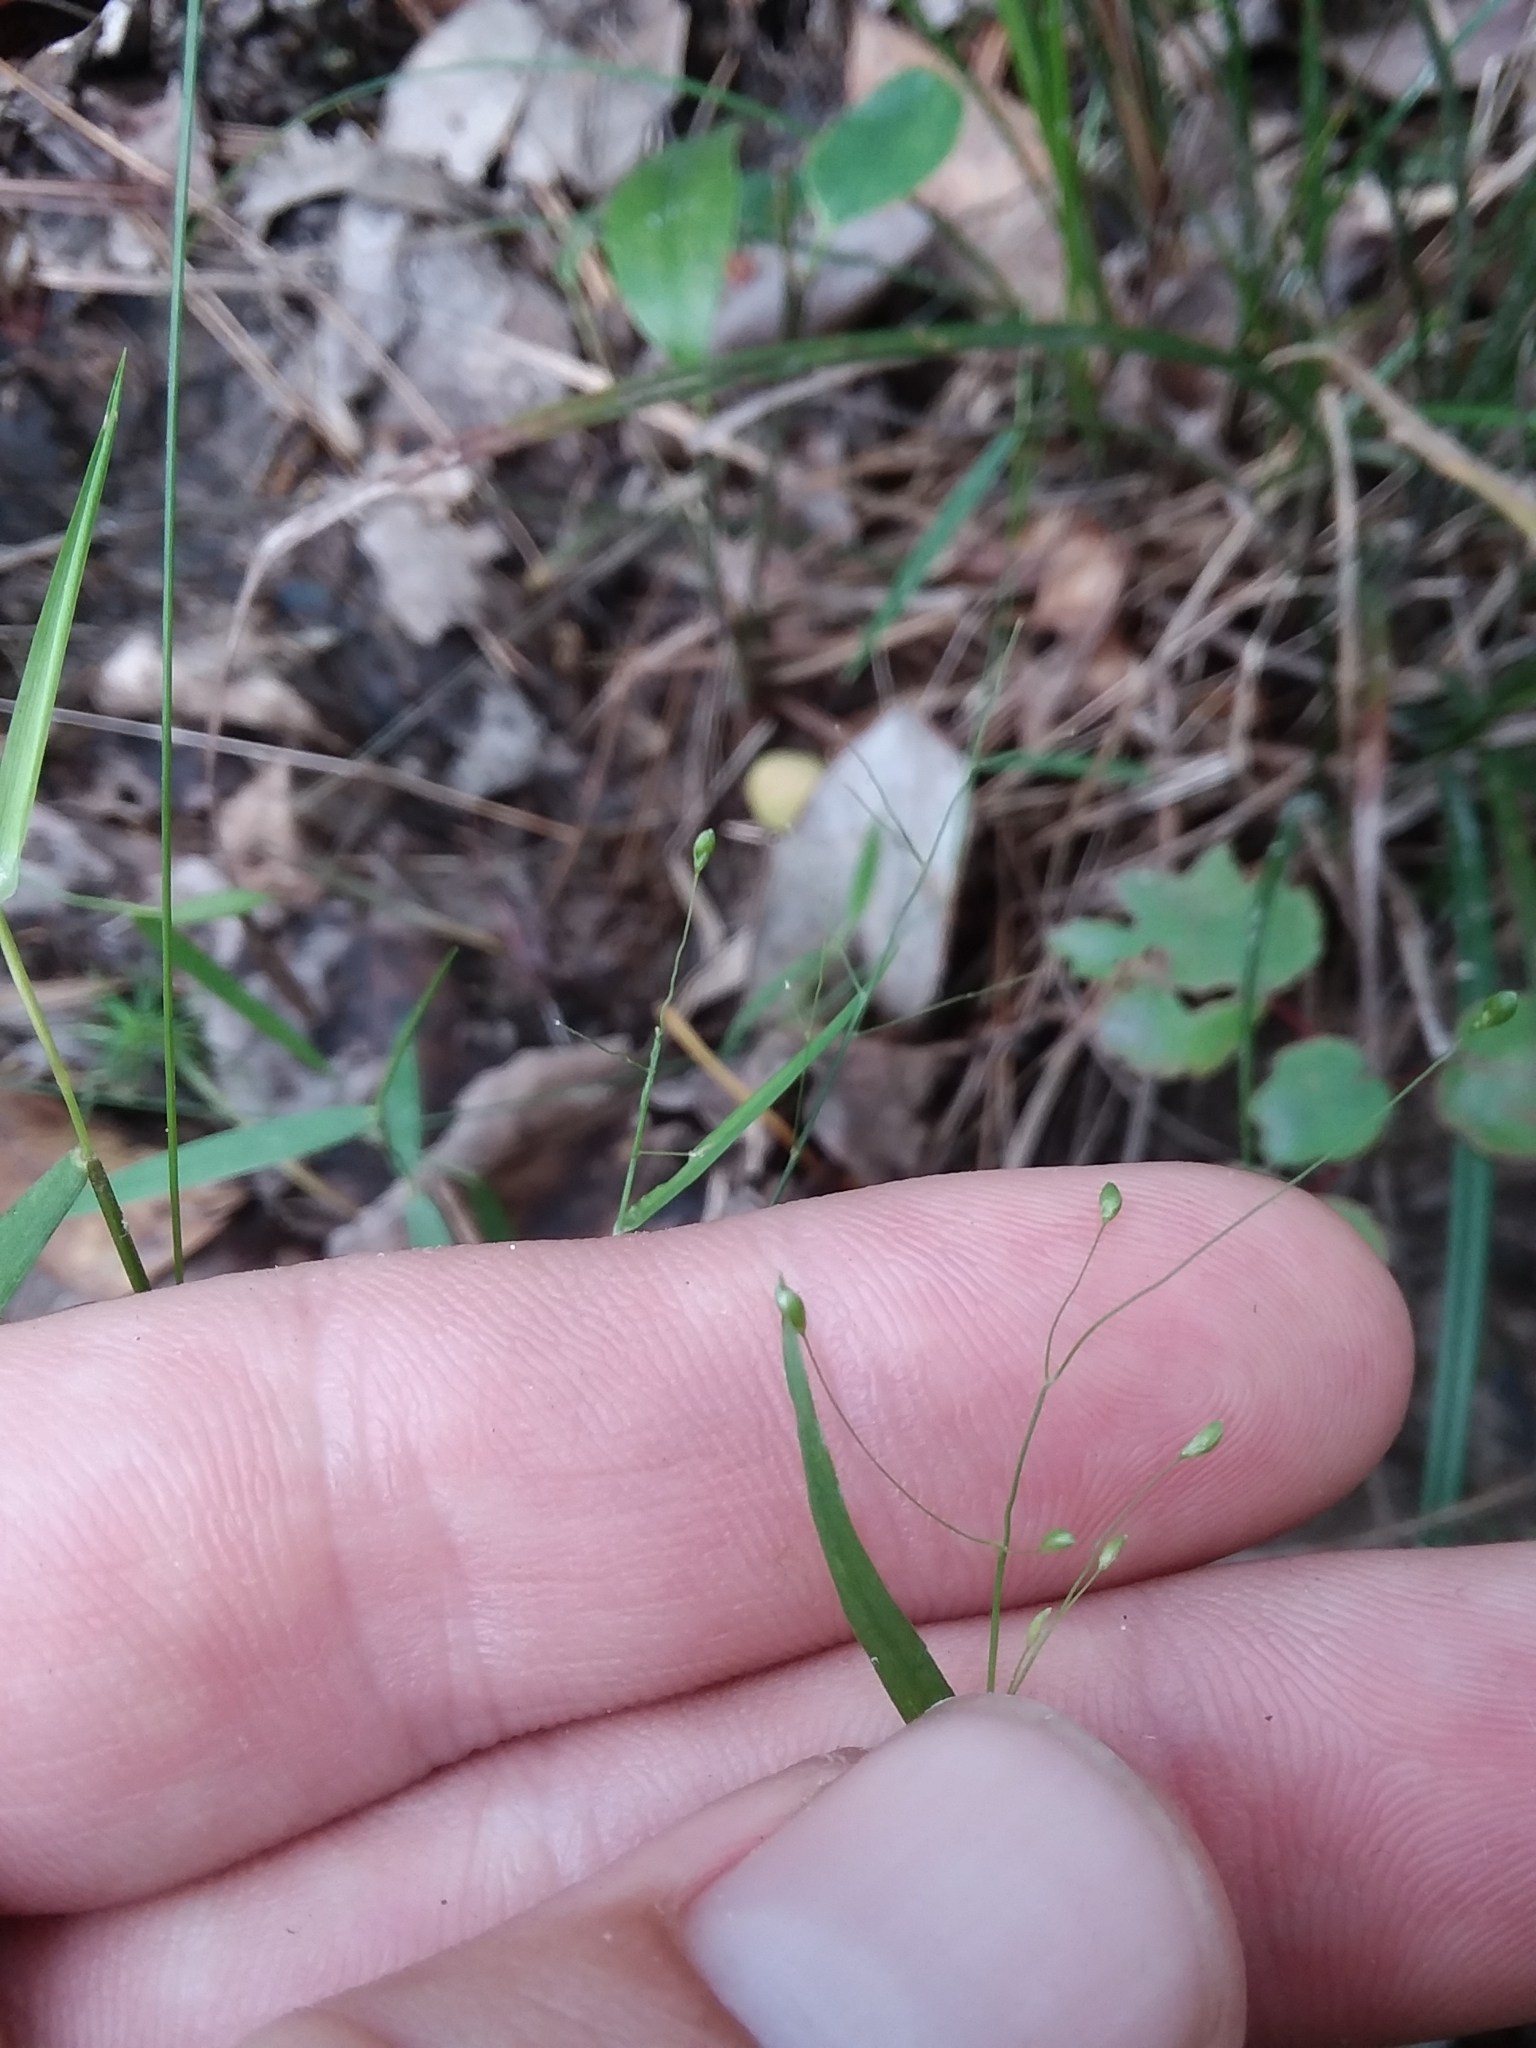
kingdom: Plantae
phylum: Tracheophyta
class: Liliopsida
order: Poales
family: Poaceae
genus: Dichanthelium
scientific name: Dichanthelium roanokense
